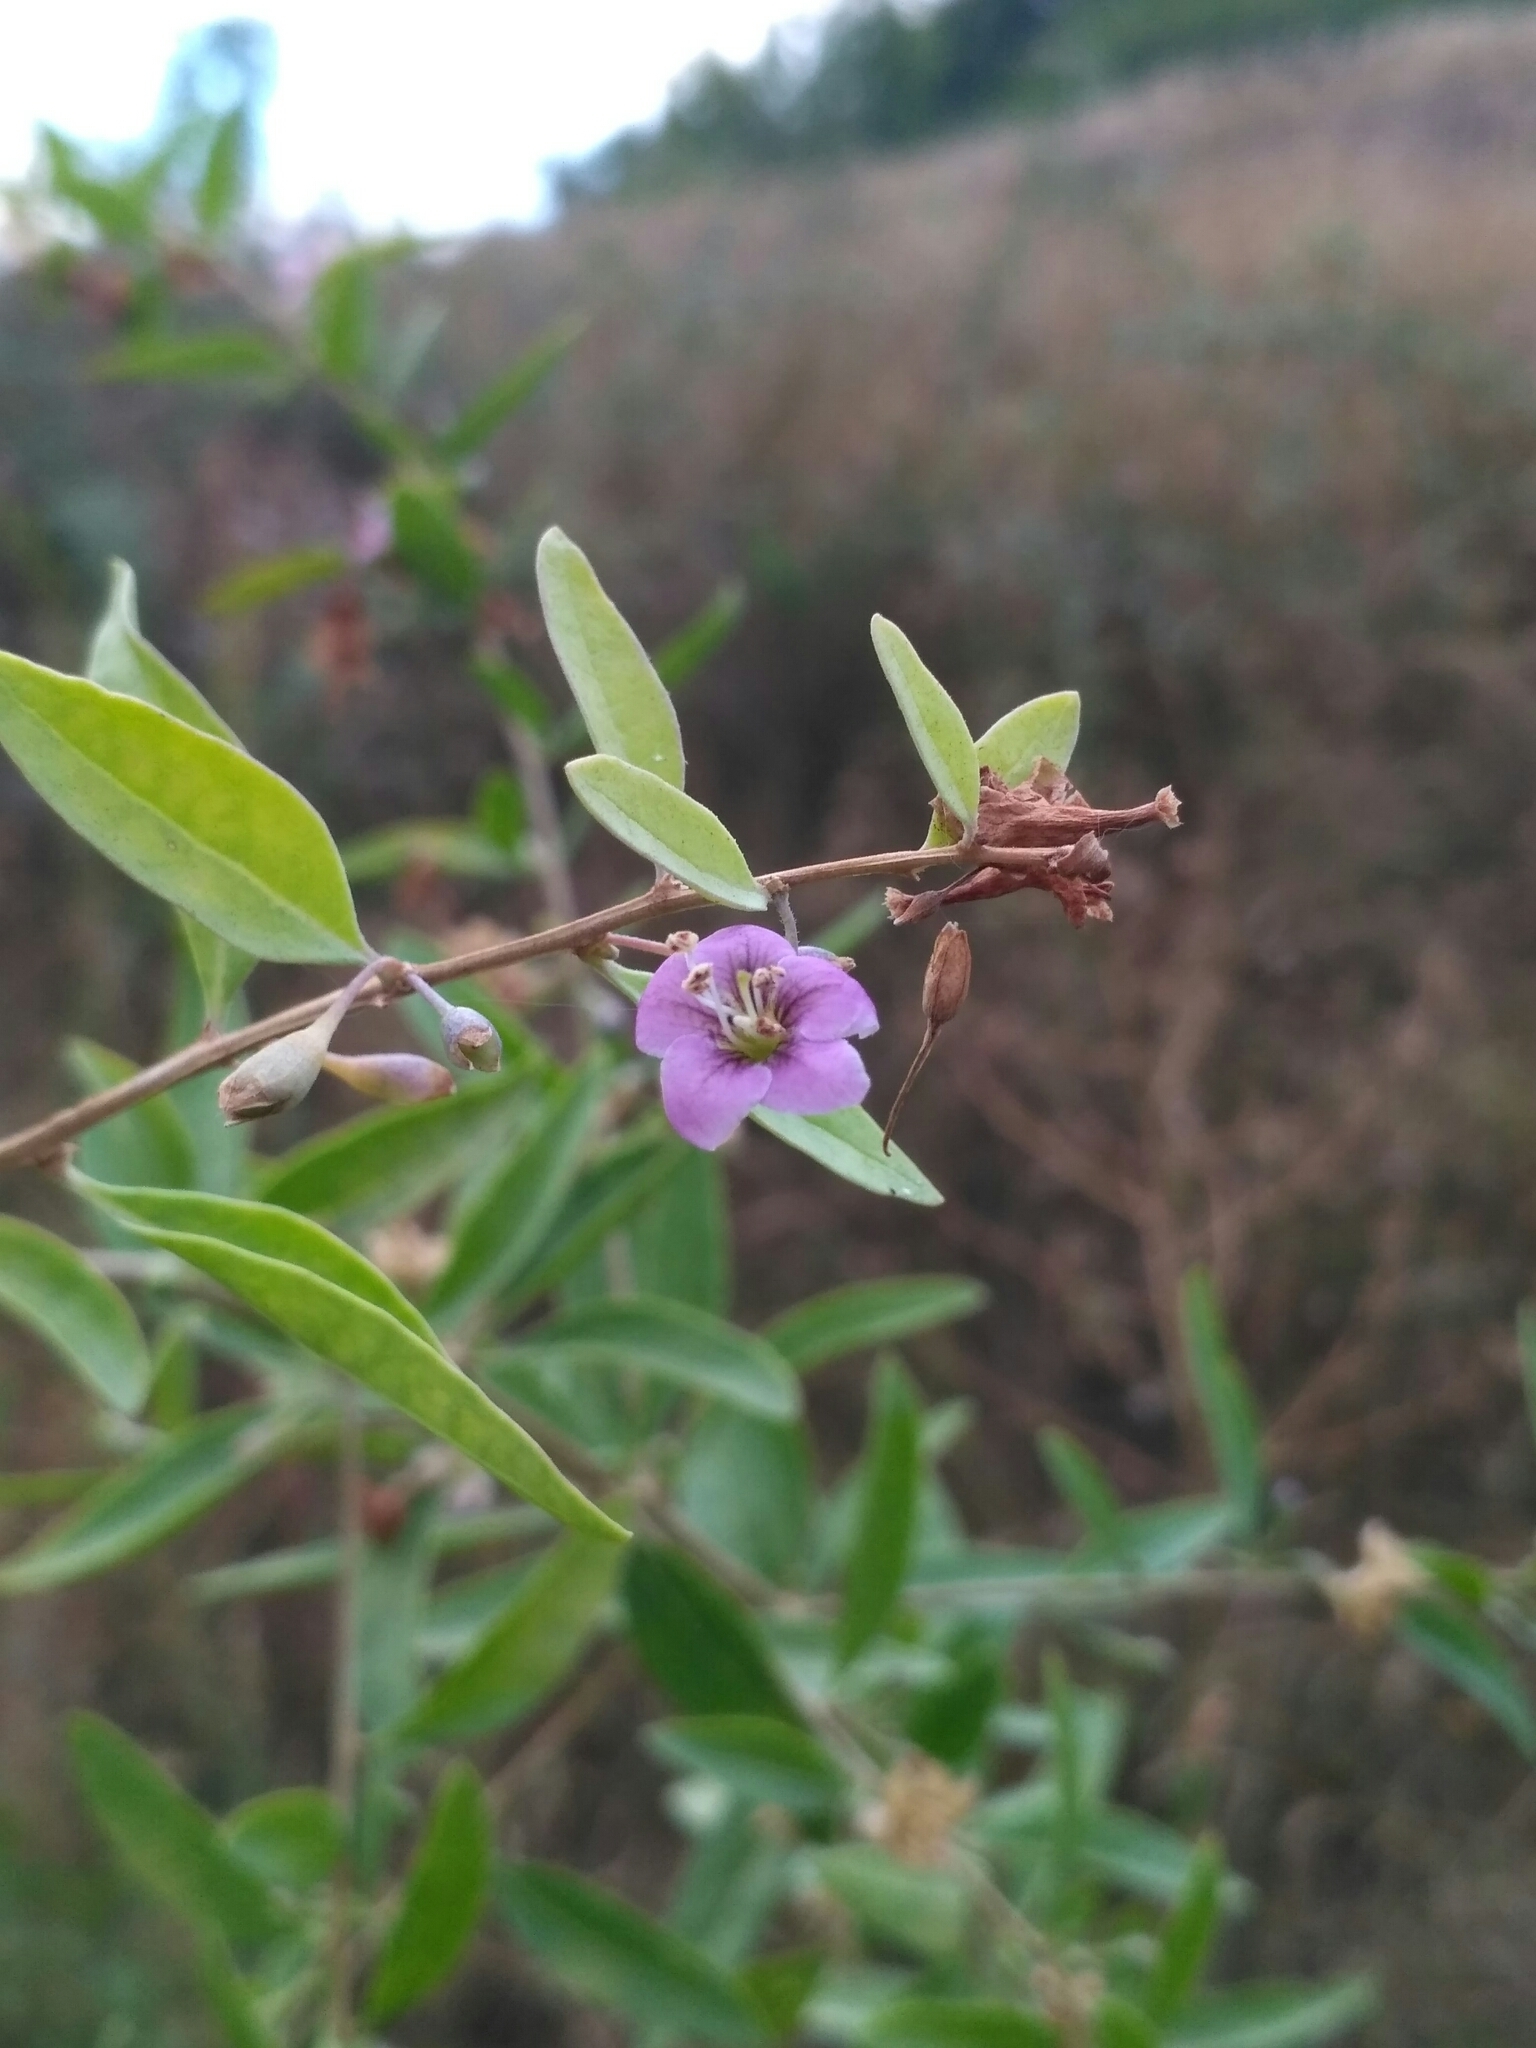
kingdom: Plantae
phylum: Tracheophyta
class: Magnoliopsida
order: Solanales
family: Solanaceae
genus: Lycium
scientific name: Lycium barbarum
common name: Duke of argyll's teaplant
